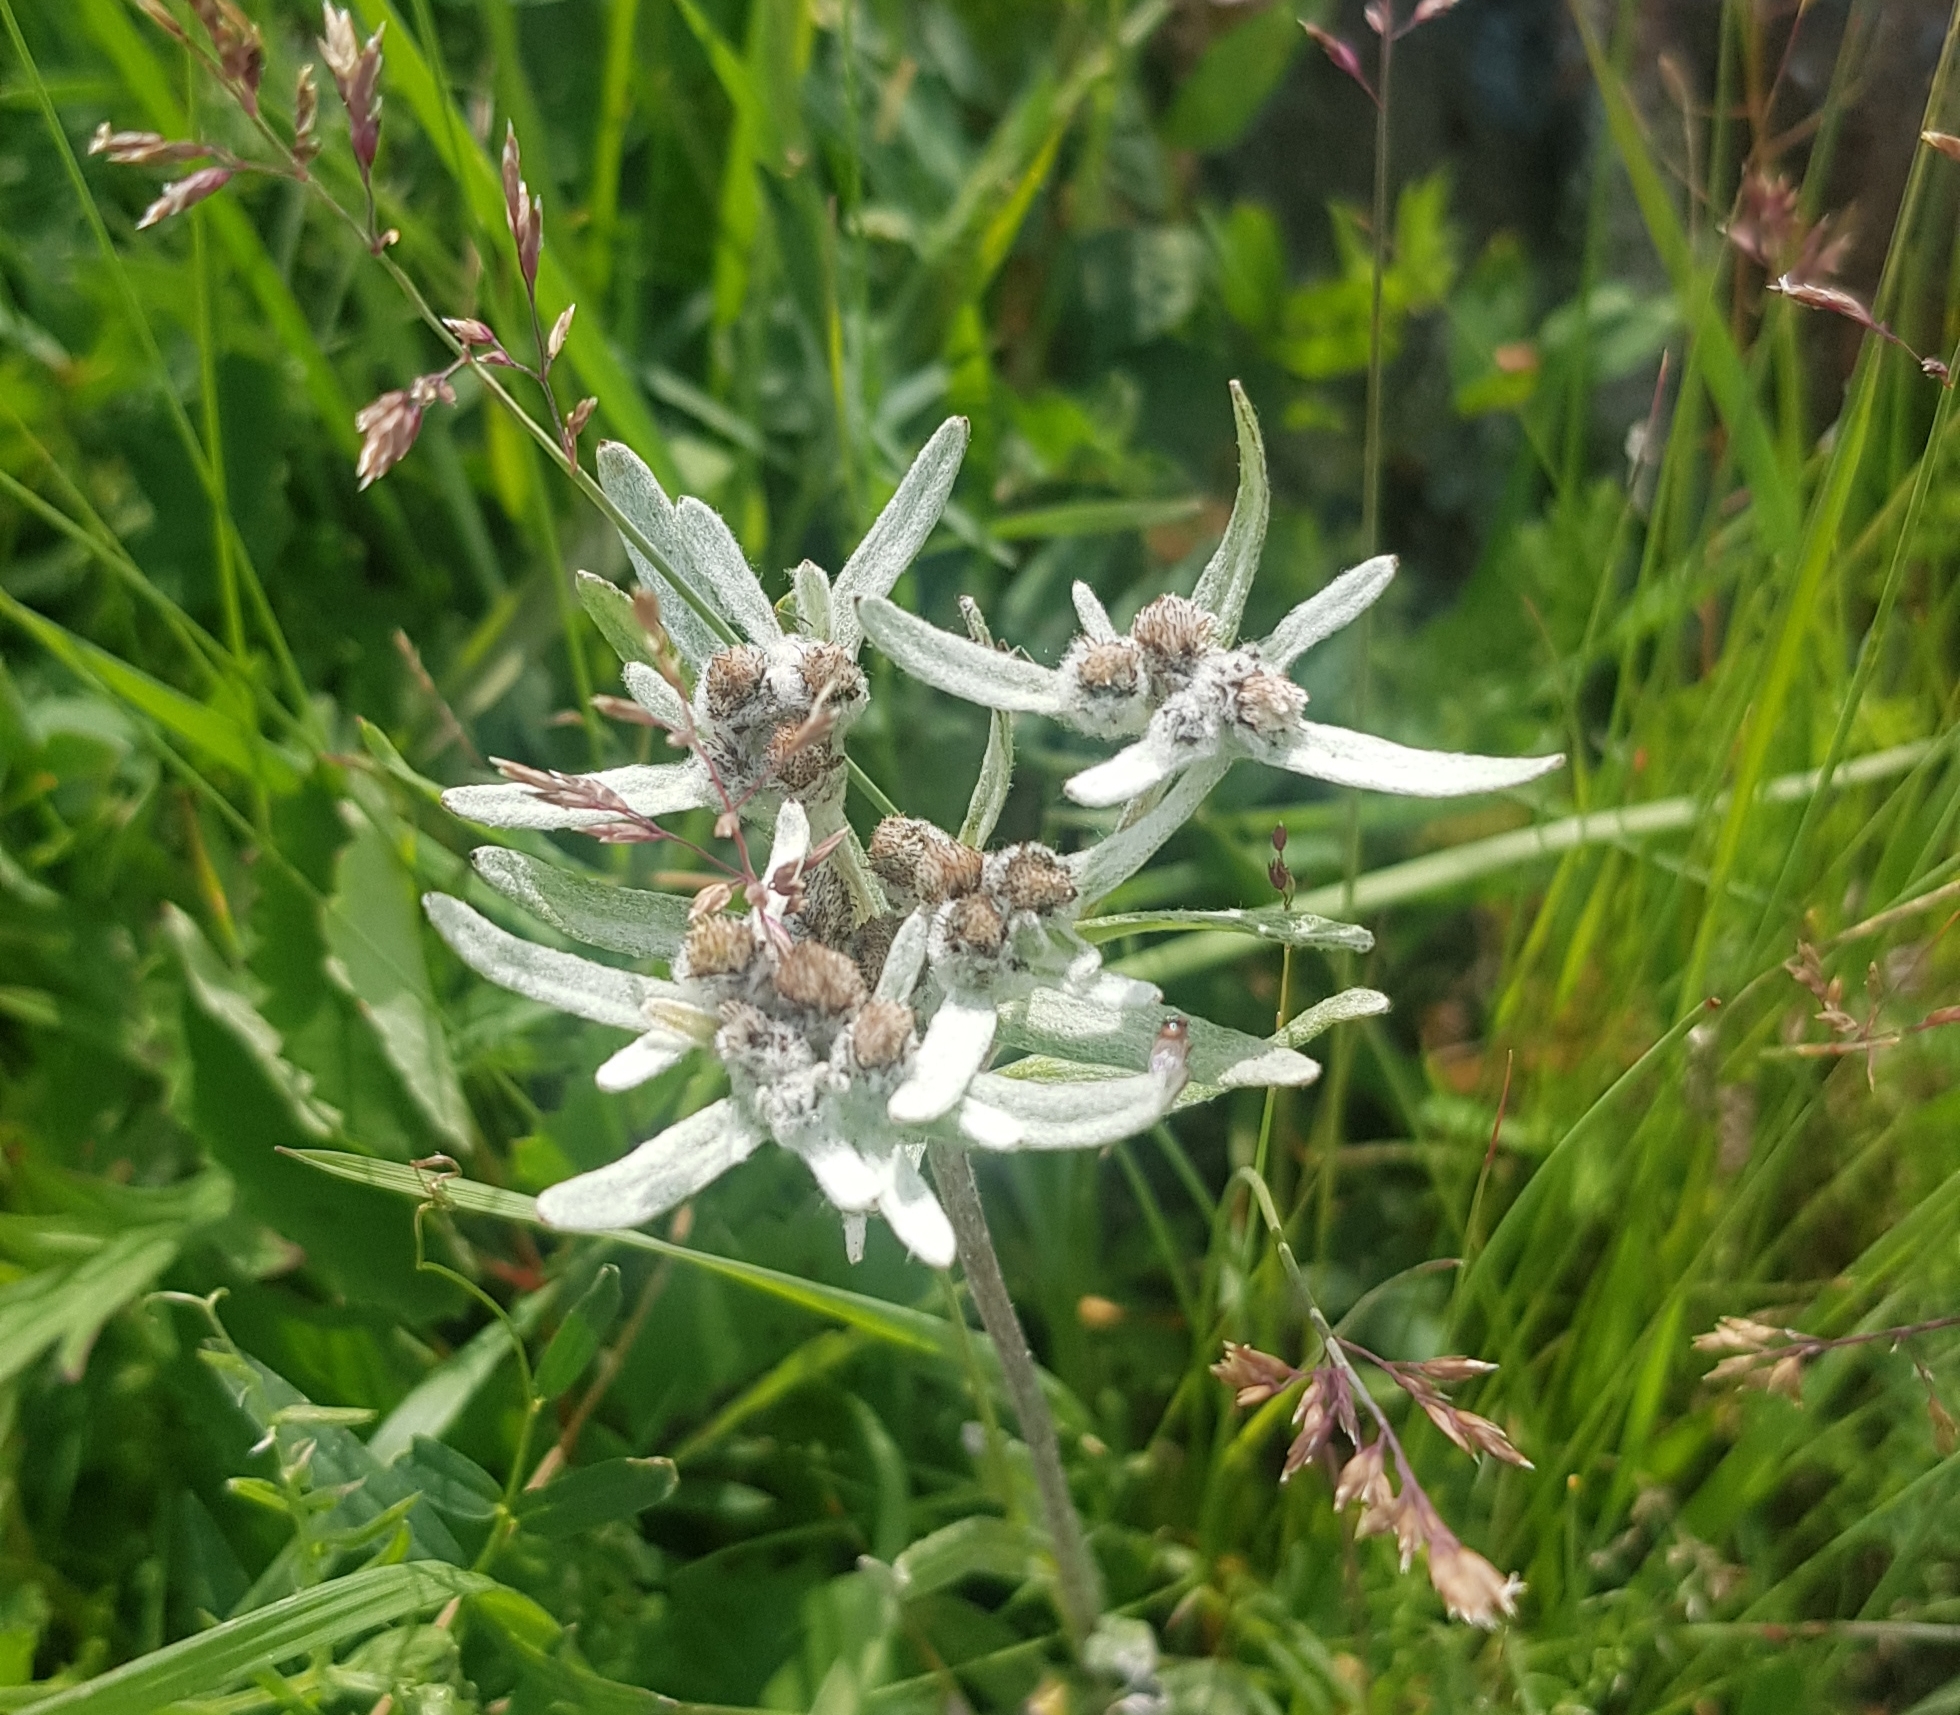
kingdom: Plantae
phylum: Tracheophyta
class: Magnoliopsida
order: Asterales
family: Asteraceae
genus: Leontopodium
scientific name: Leontopodium conglobatum
